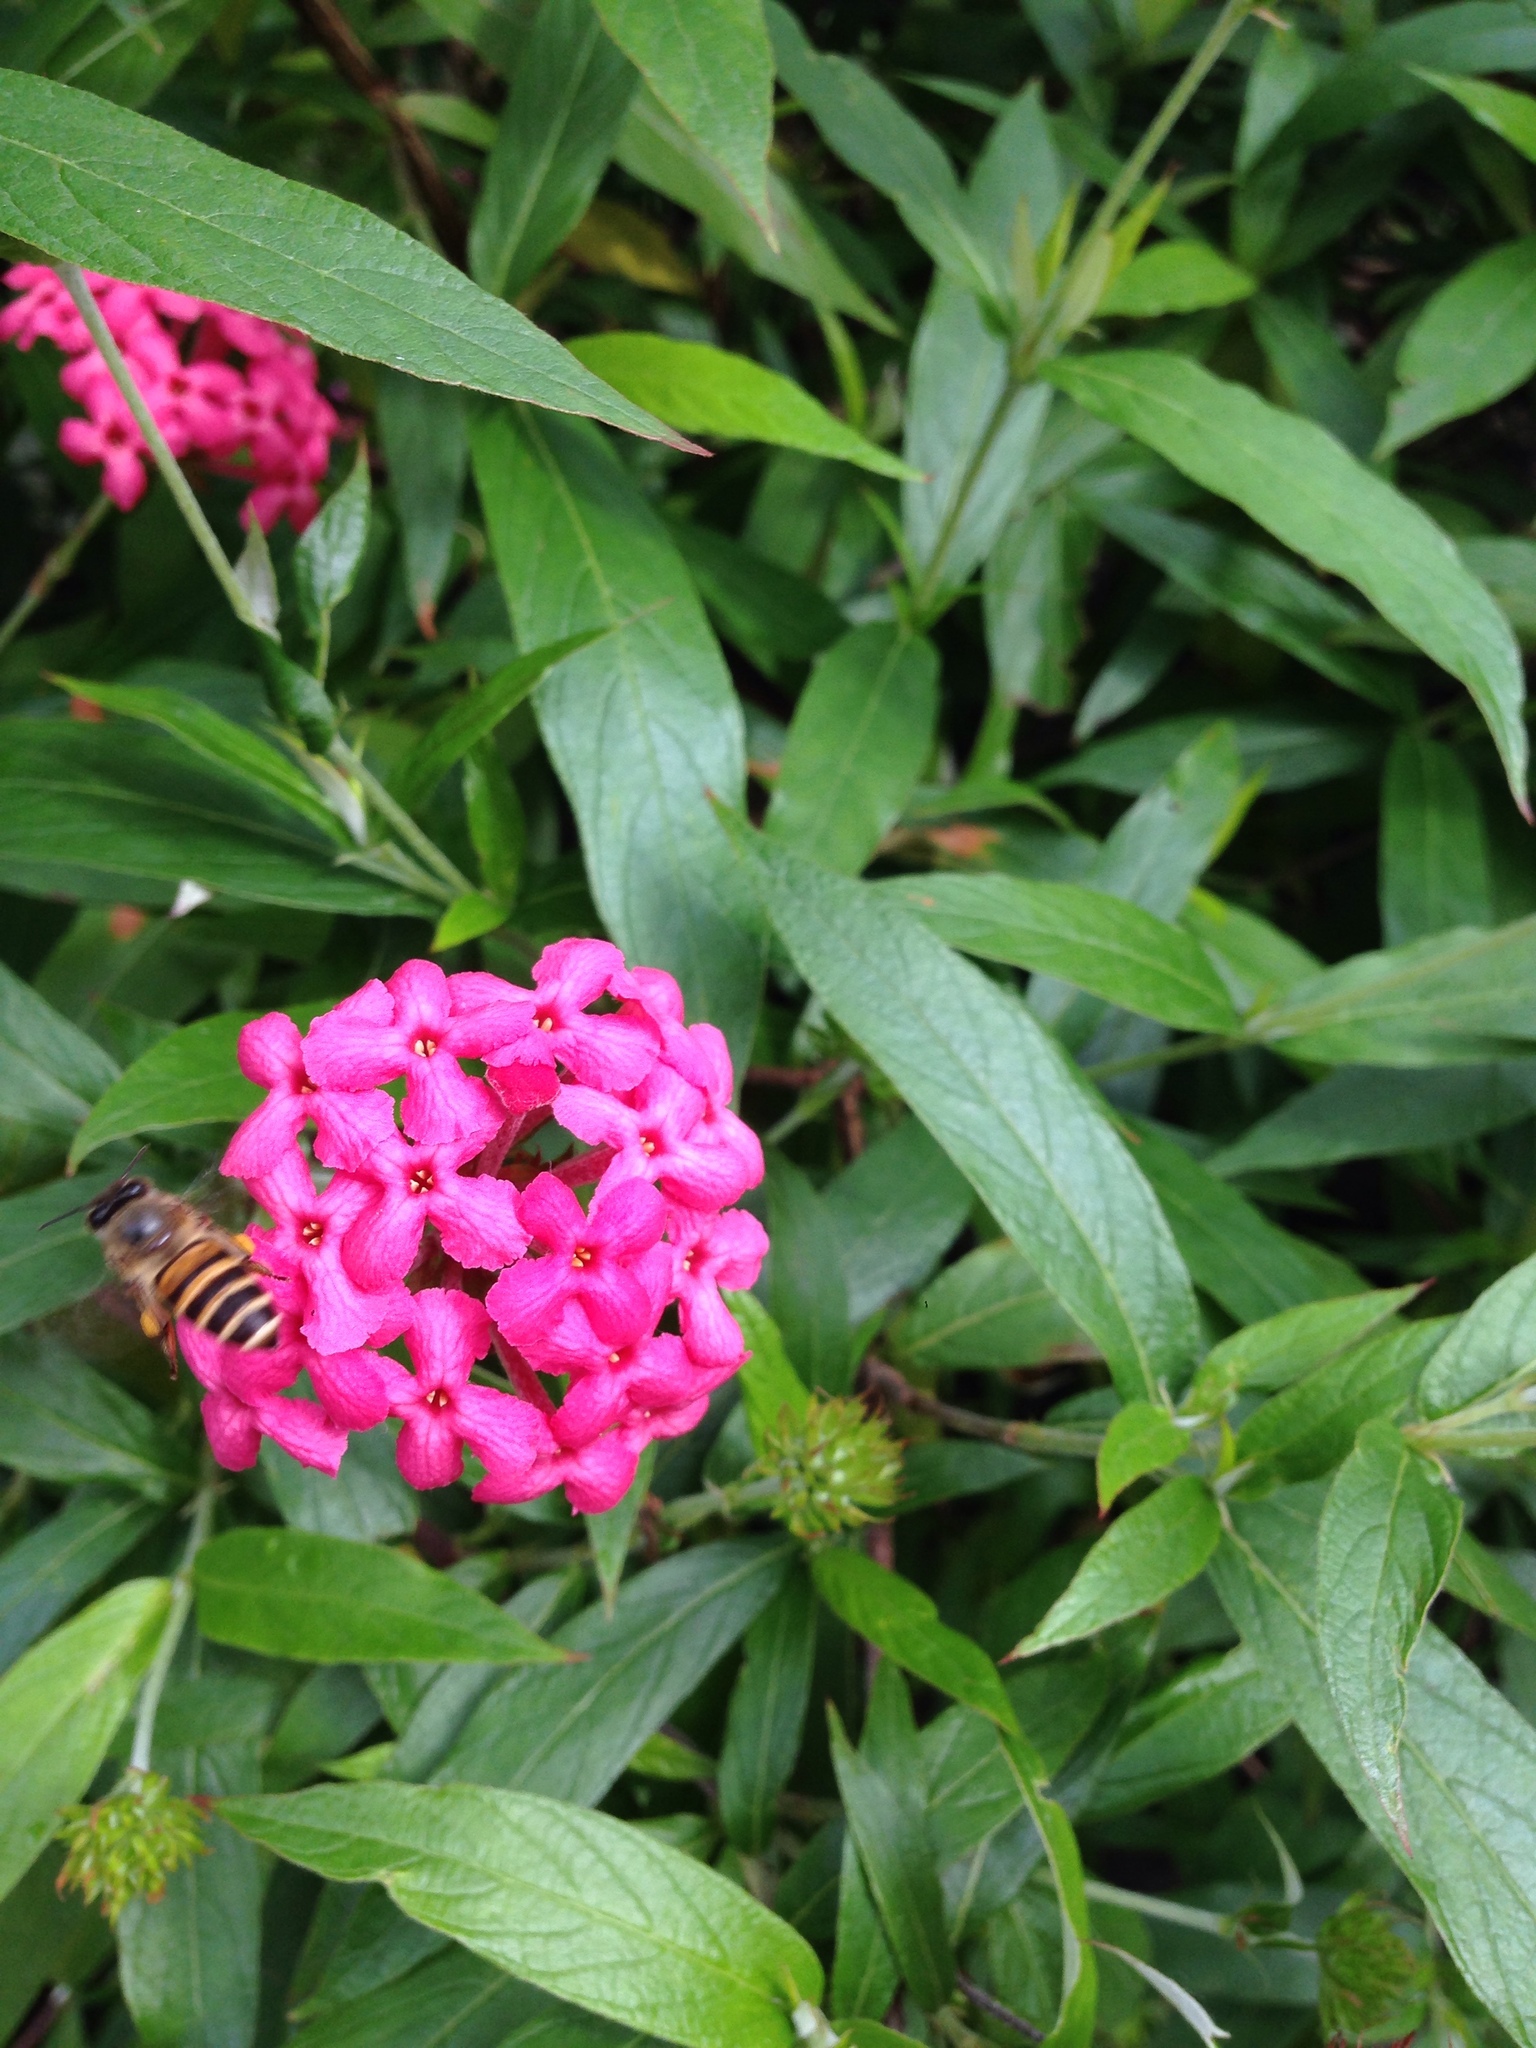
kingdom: Animalia
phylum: Arthropoda
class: Insecta
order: Hymenoptera
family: Apidae
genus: Apis
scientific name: Apis cerana
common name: Honey bee
